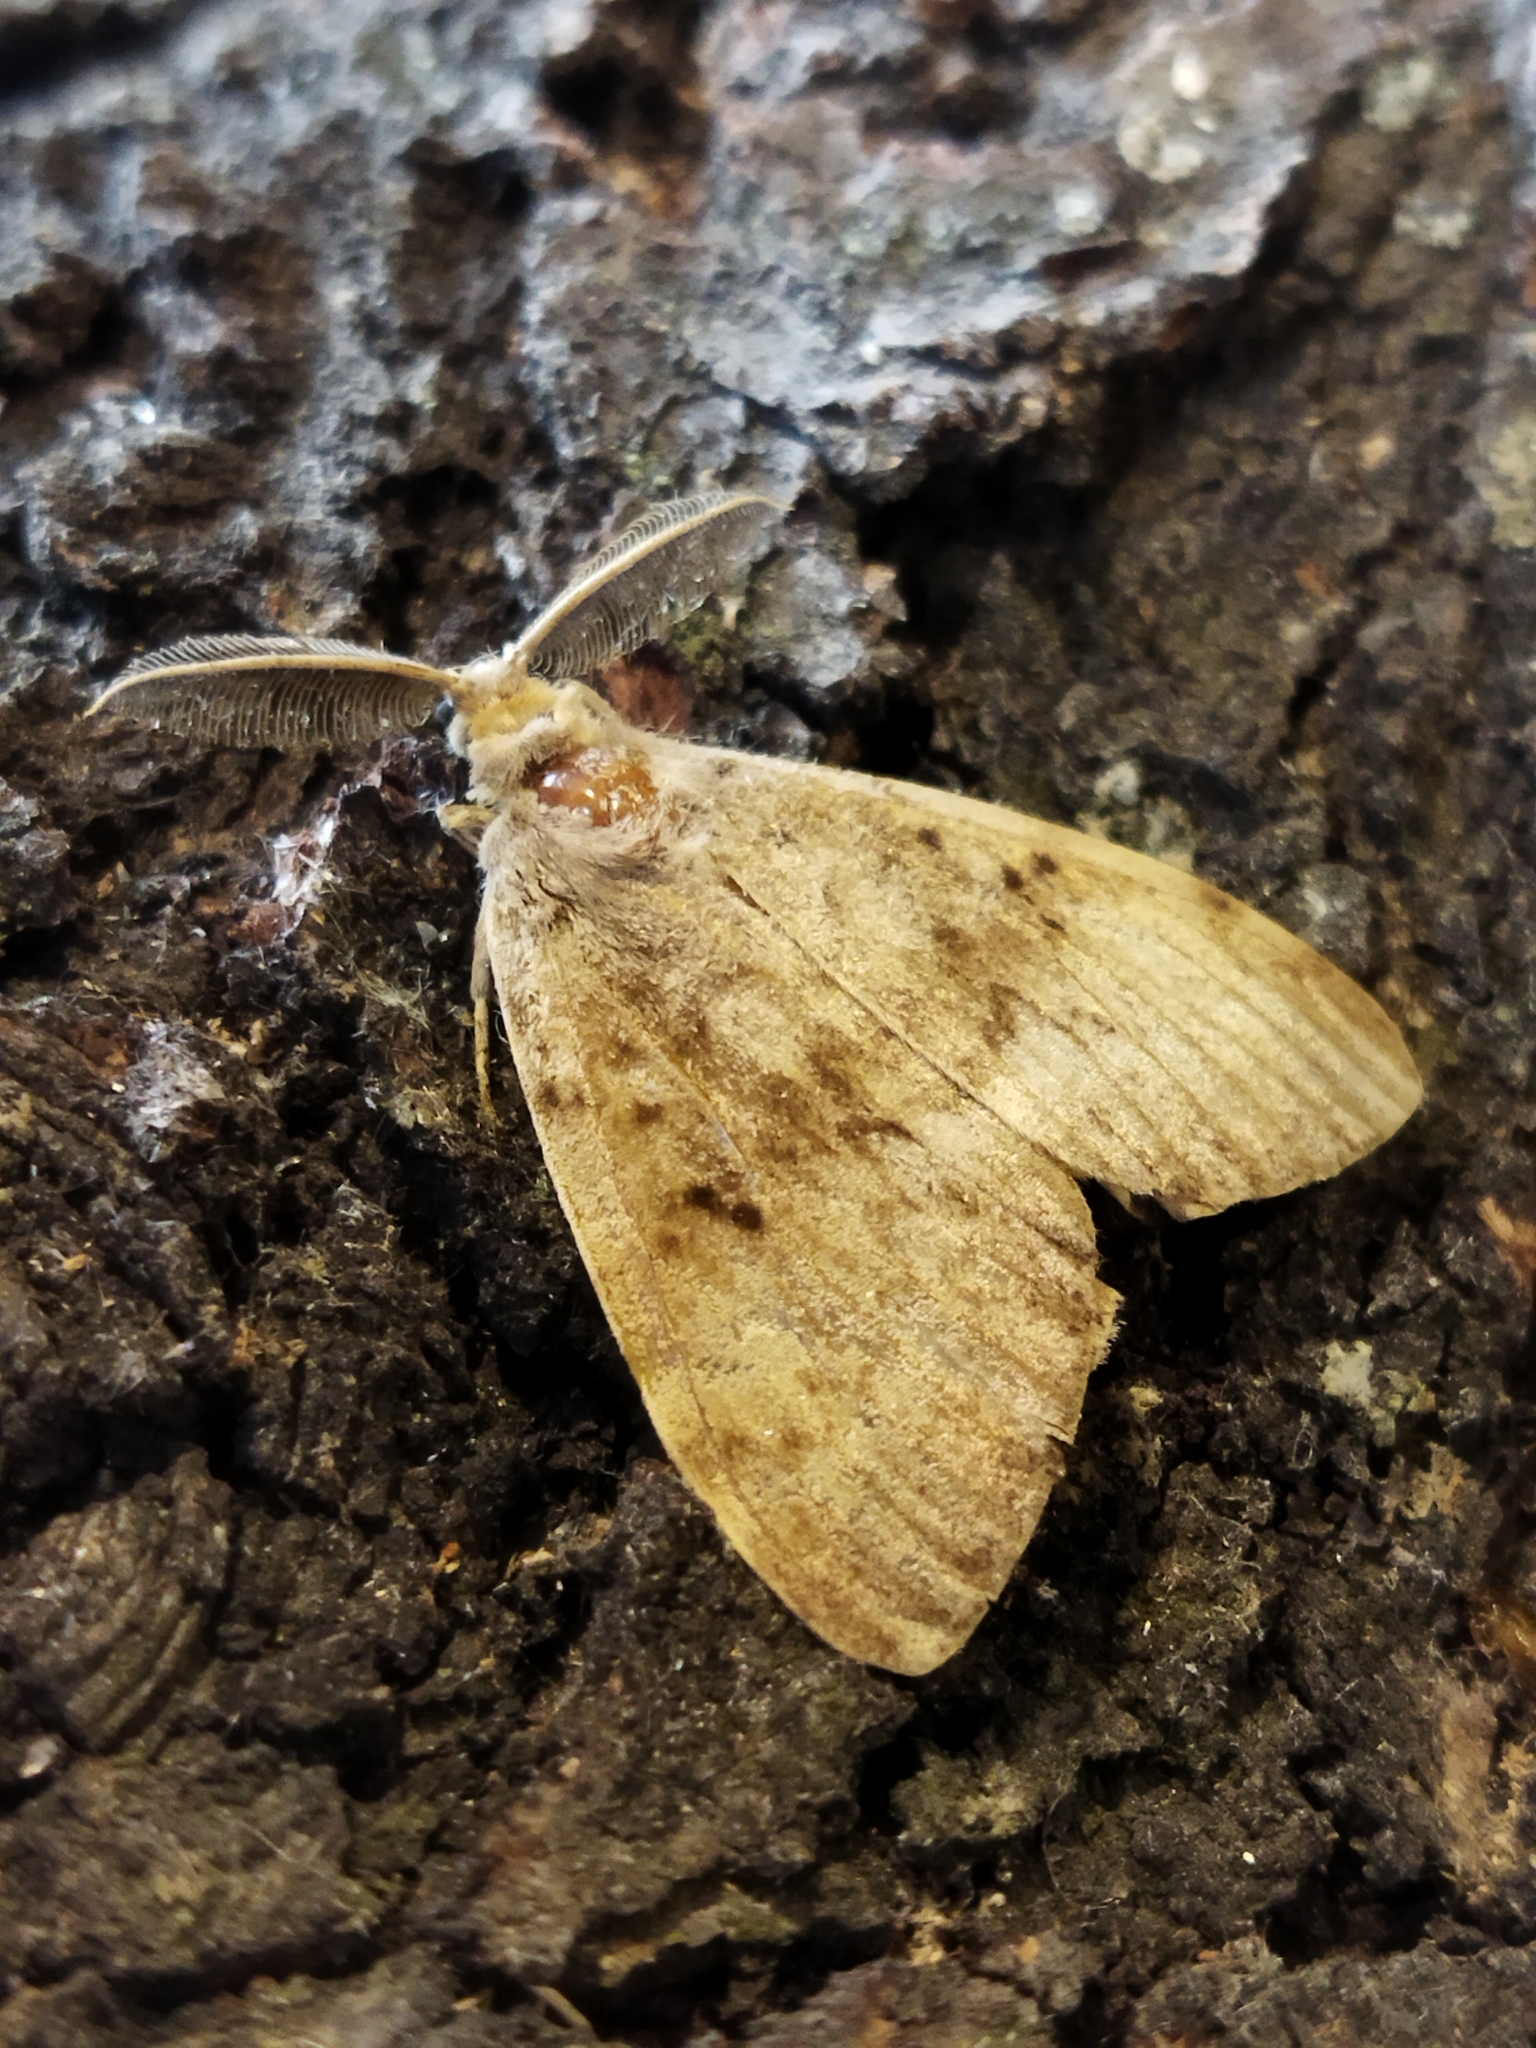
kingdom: Animalia
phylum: Arthropoda
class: Insecta
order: Lepidoptera
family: Erebidae
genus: Lymantria
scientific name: Lymantria dispar
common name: Gypsy moth
